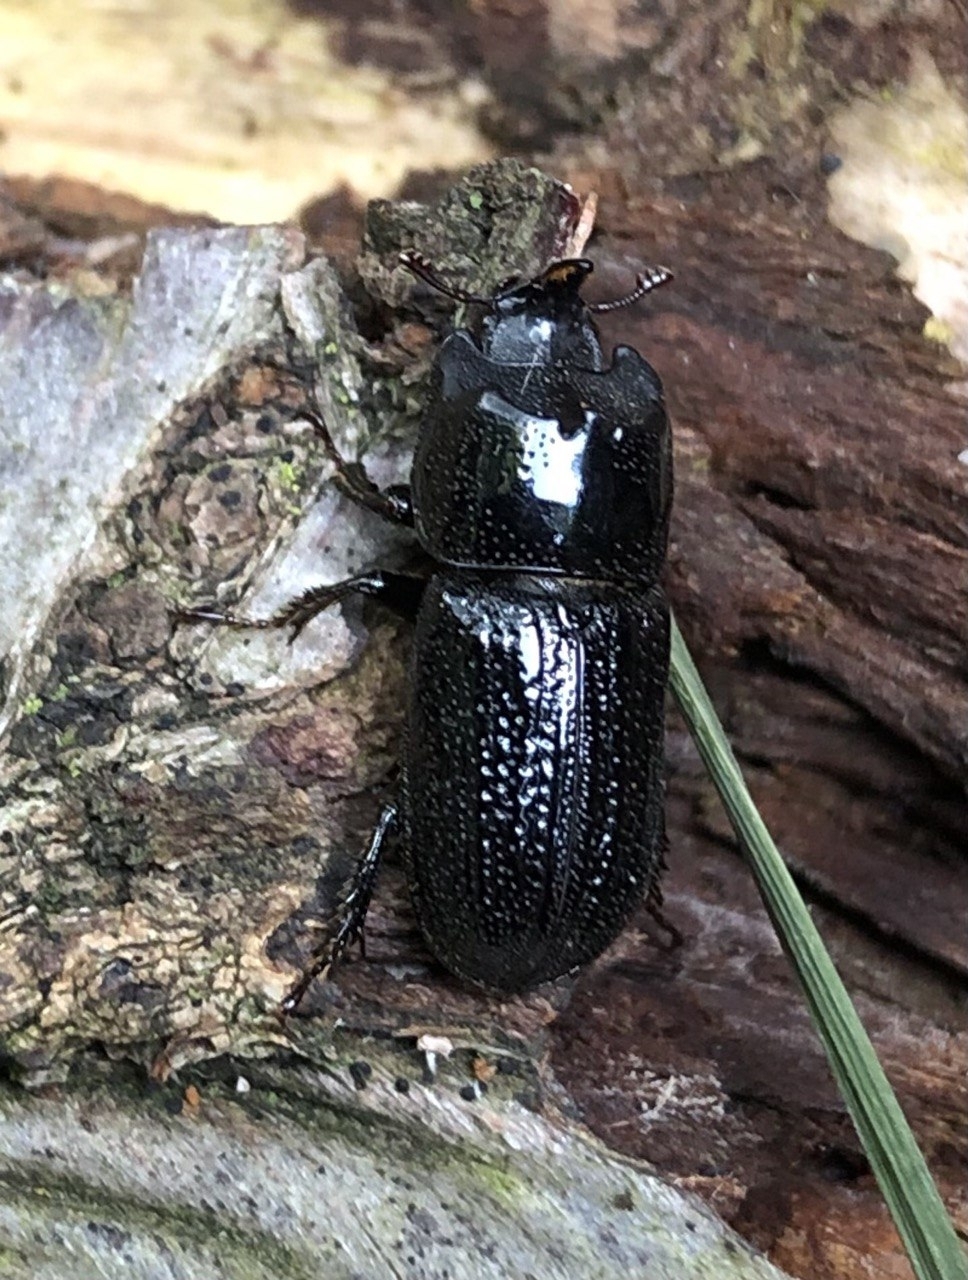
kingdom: Animalia
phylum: Arthropoda
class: Insecta
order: Coleoptera
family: Lucanidae
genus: Sinodendron
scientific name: Sinodendron cylindricum
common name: Rhinoceros beetle
